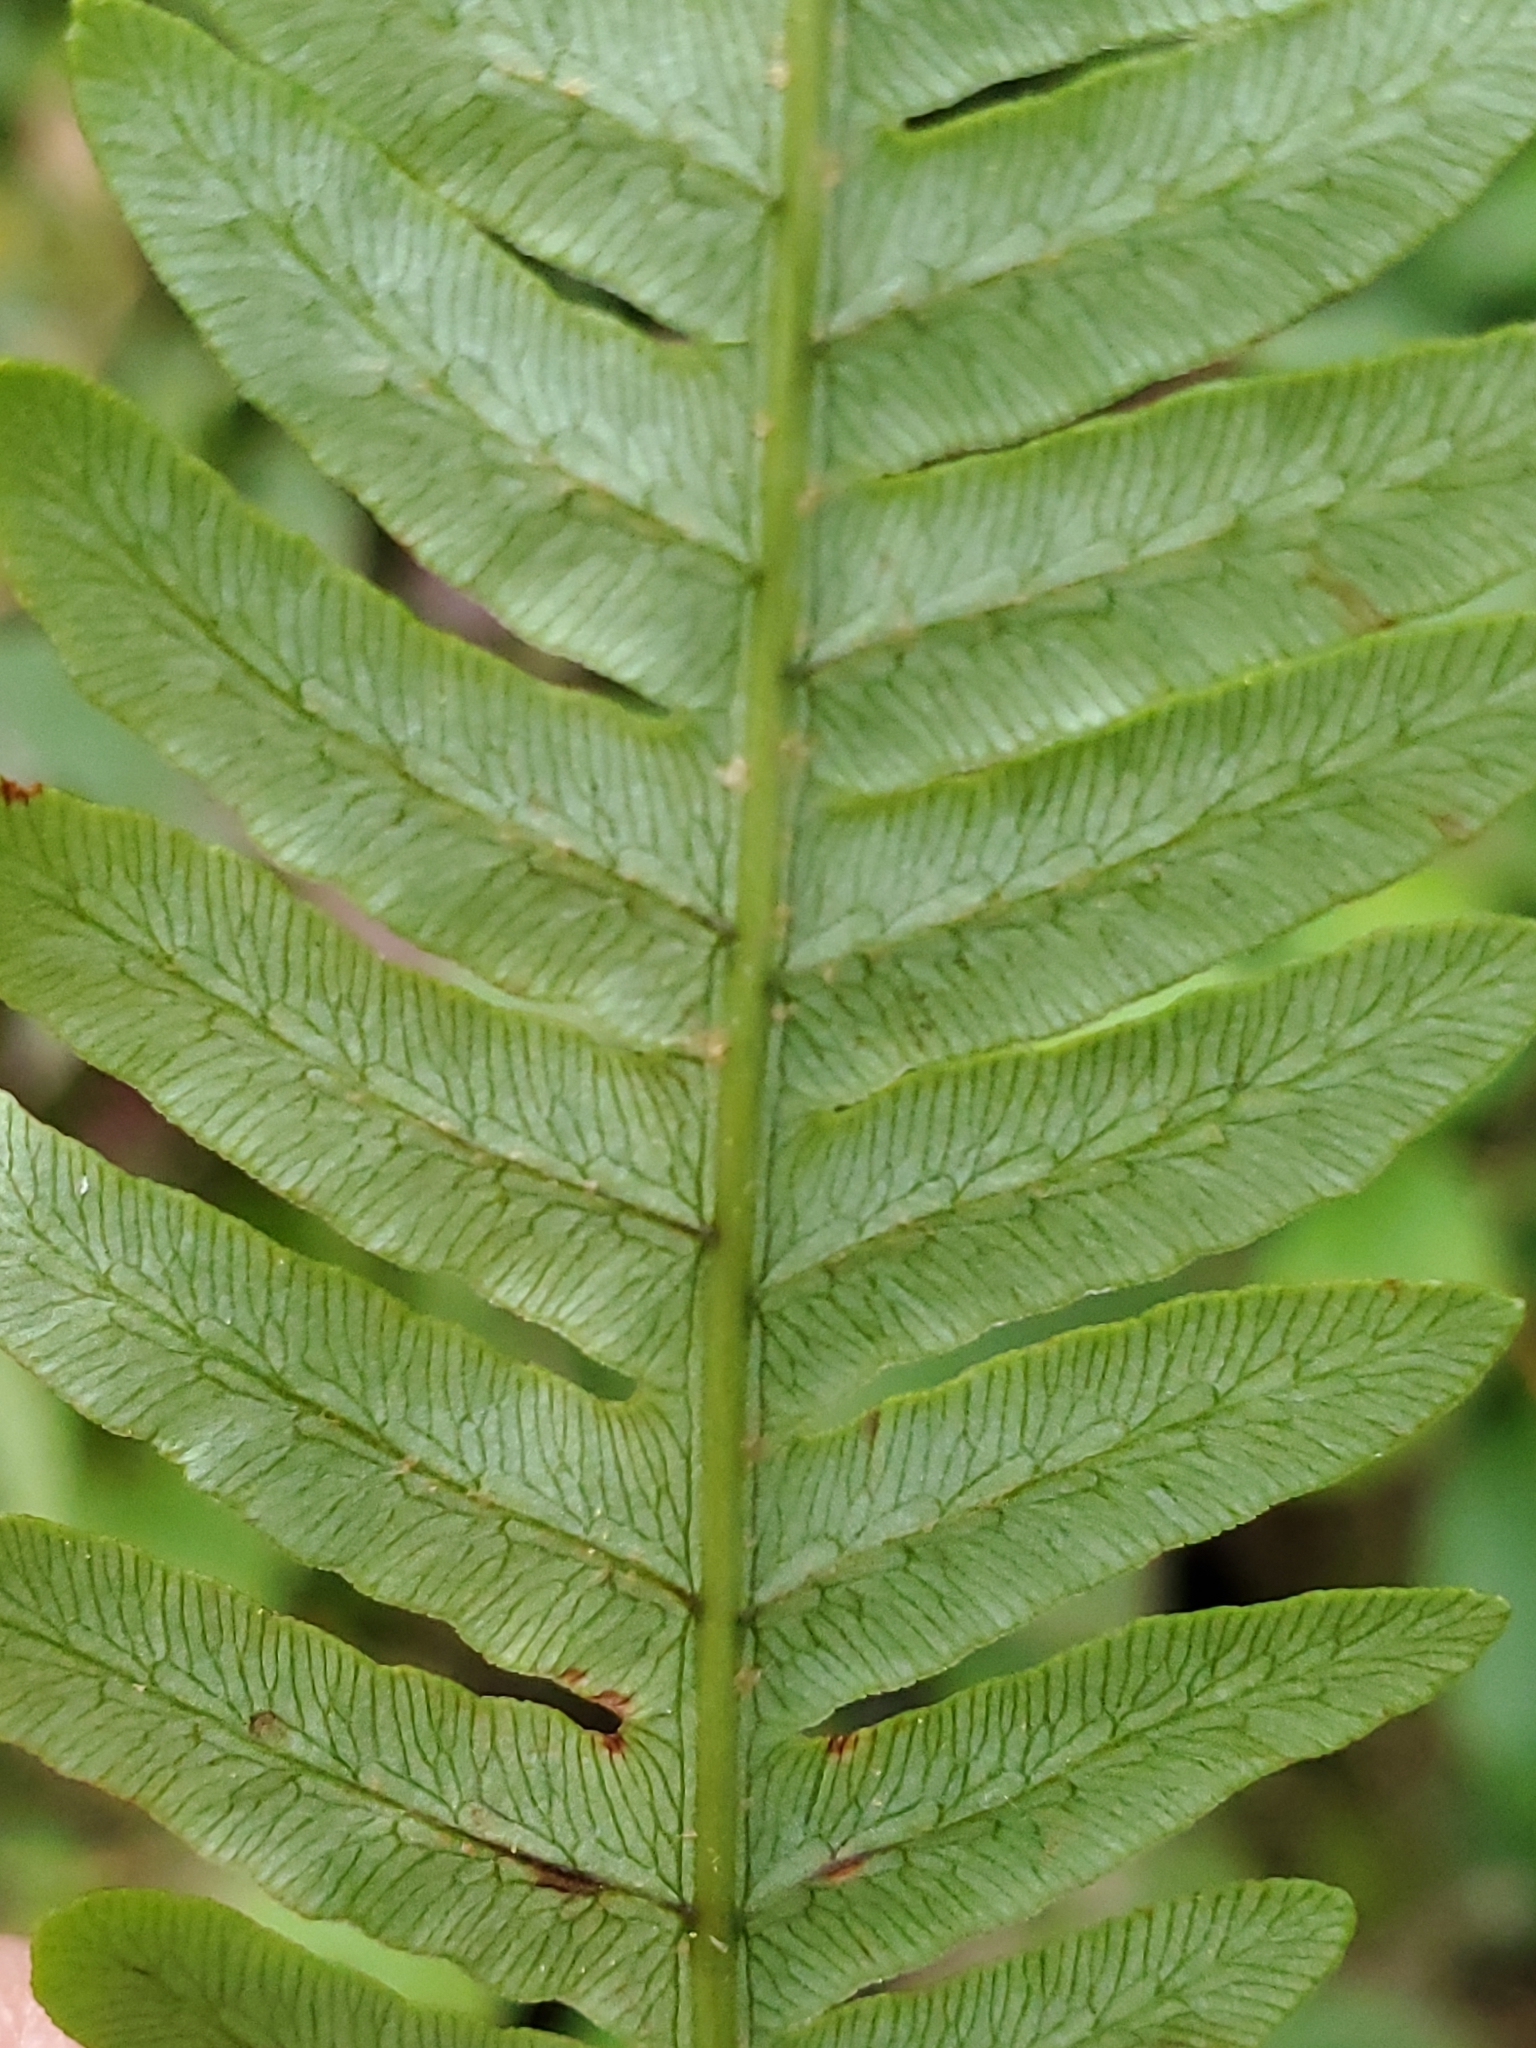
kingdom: Plantae
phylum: Tracheophyta
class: Polypodiopsida
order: Polypodiales
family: Blechnaceae
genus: Anchistea
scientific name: Anchistea virginica
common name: Virginia chain fern
